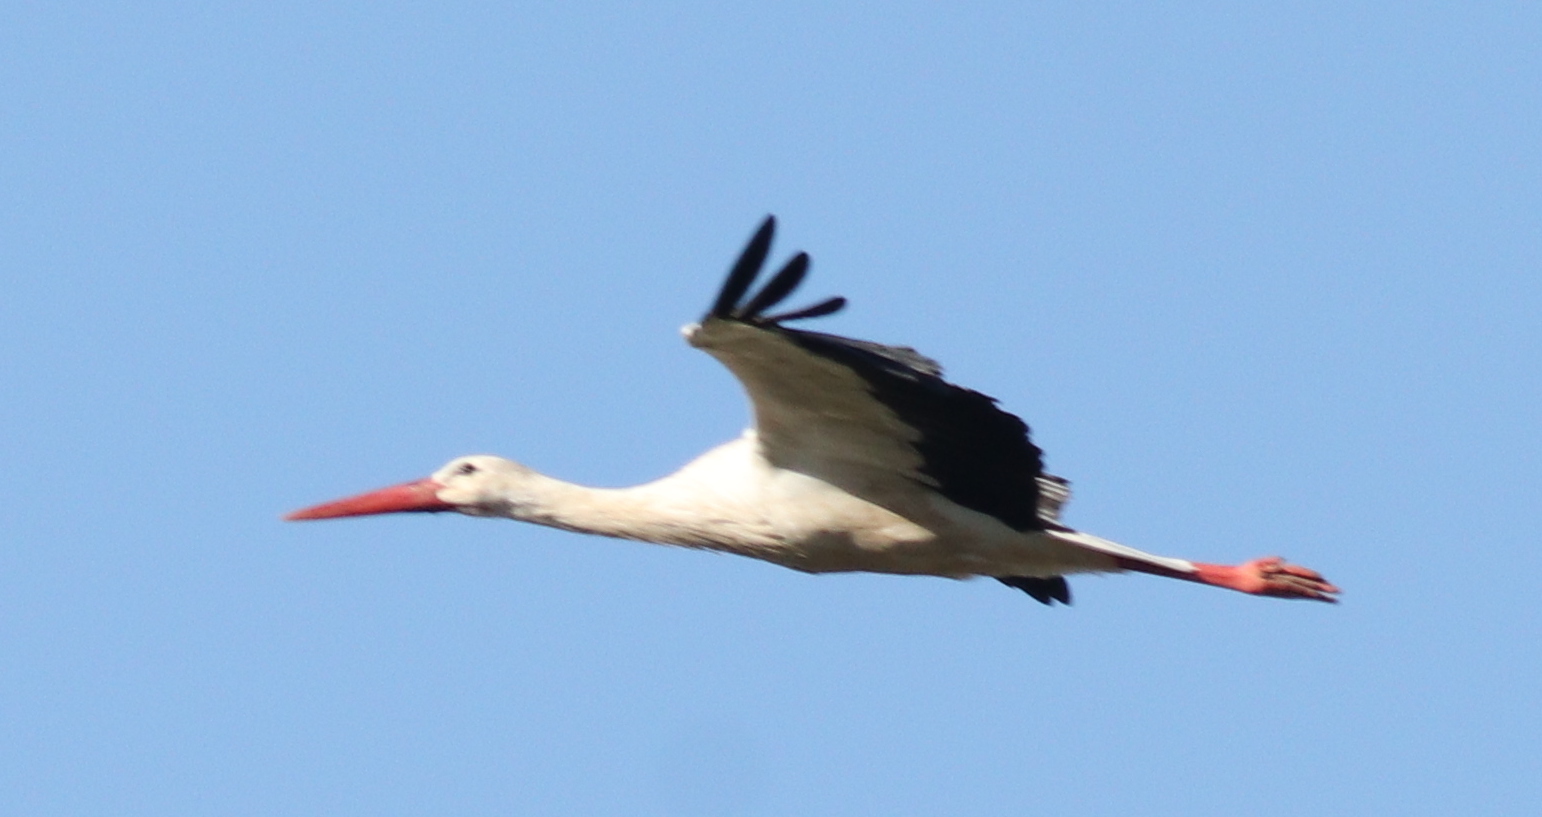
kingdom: Animalia
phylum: Chordata
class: Aves
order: Ciconiiformes
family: Ciconiidae
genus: Ciconia
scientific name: Ciconia ciconia
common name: White stork
